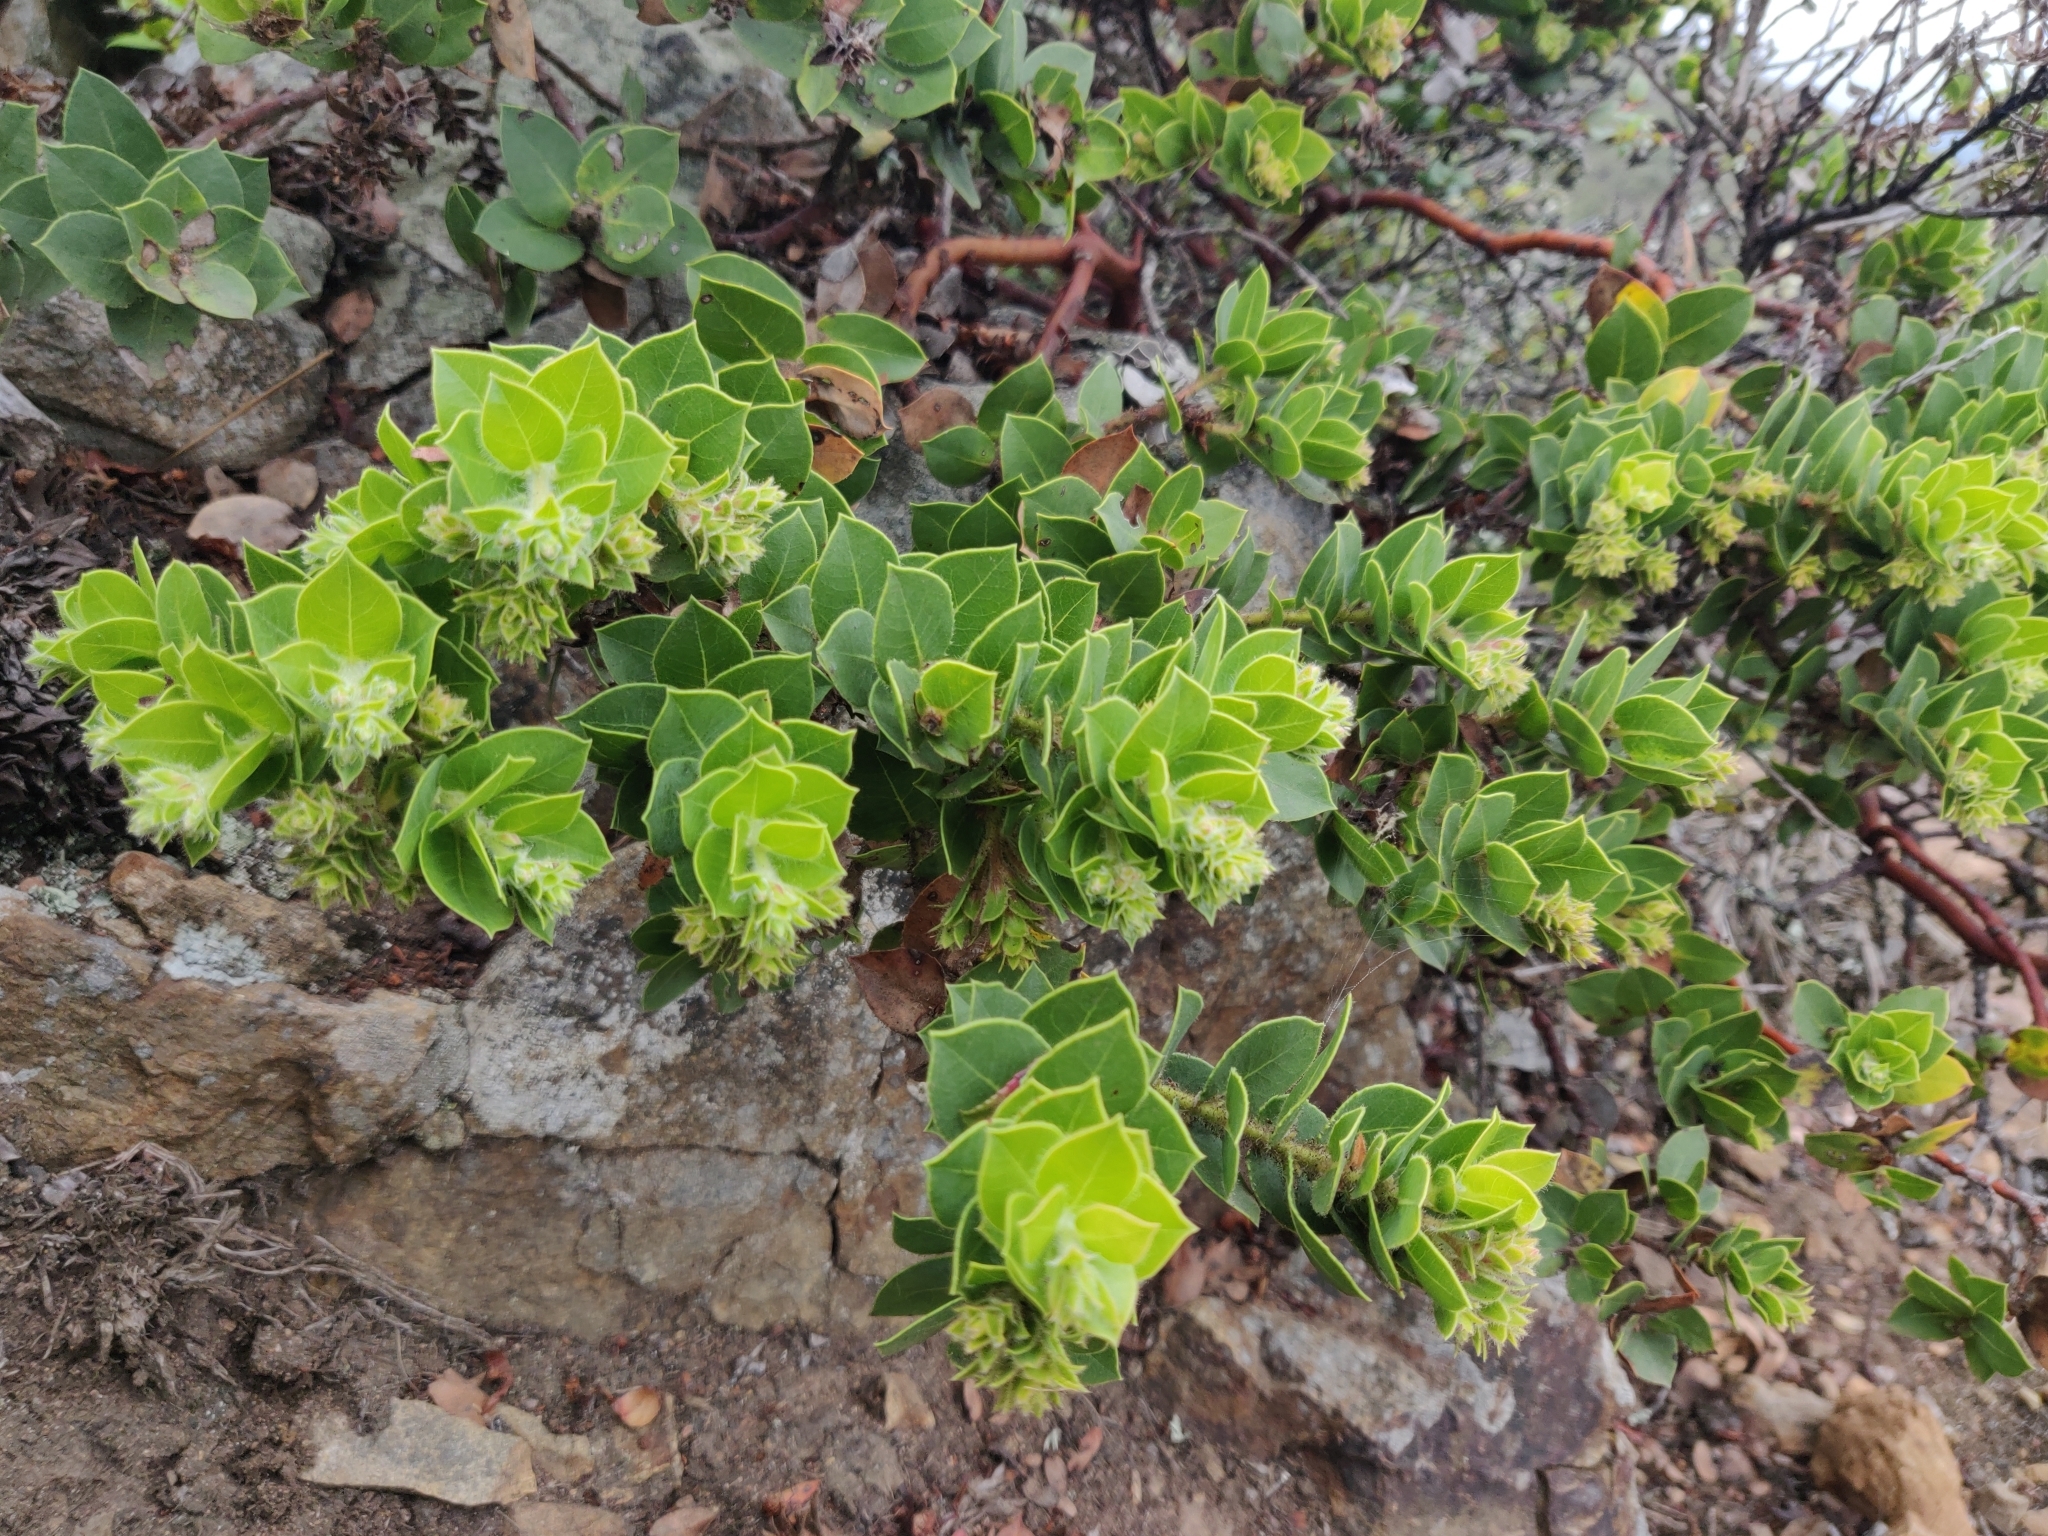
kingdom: Plantae
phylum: Tracheophyta
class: Magnoliopsida
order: Ericales
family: Ericaceae
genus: Arctostaphylos
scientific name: Arctostaphylos imbricata
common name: San bruno mountain manzanita
